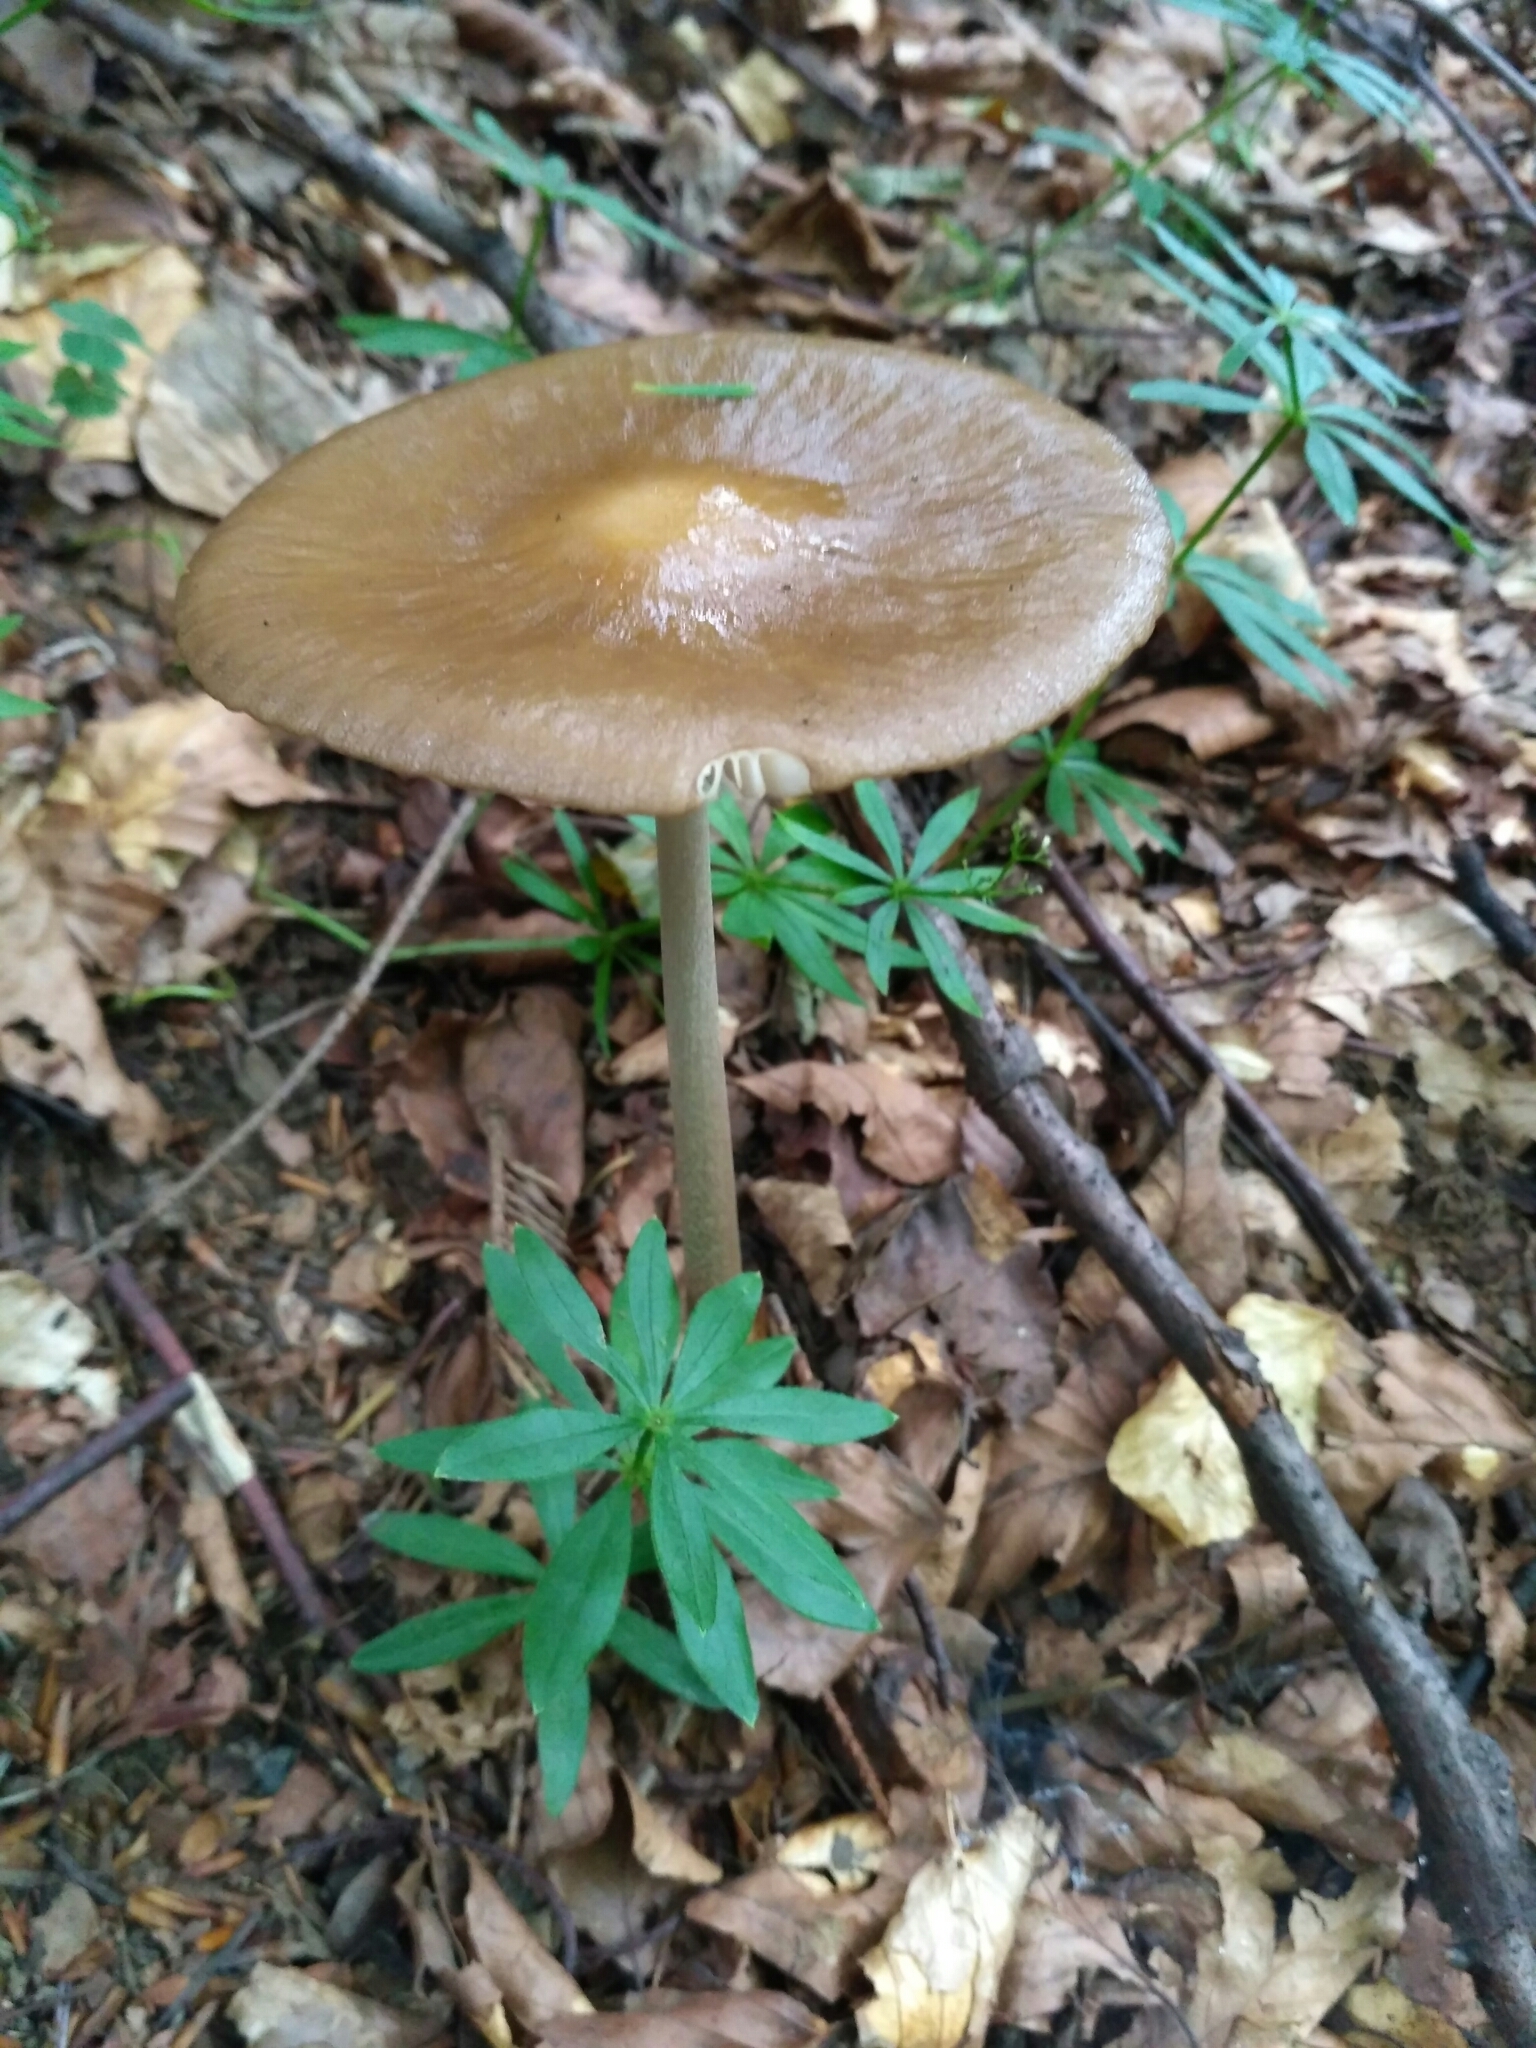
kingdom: Fungi
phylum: Basidiomycota
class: Agaricomycetes
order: Agaricales
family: Physalacriaceae
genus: Hymenopellis
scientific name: Hymenopellis radicata
